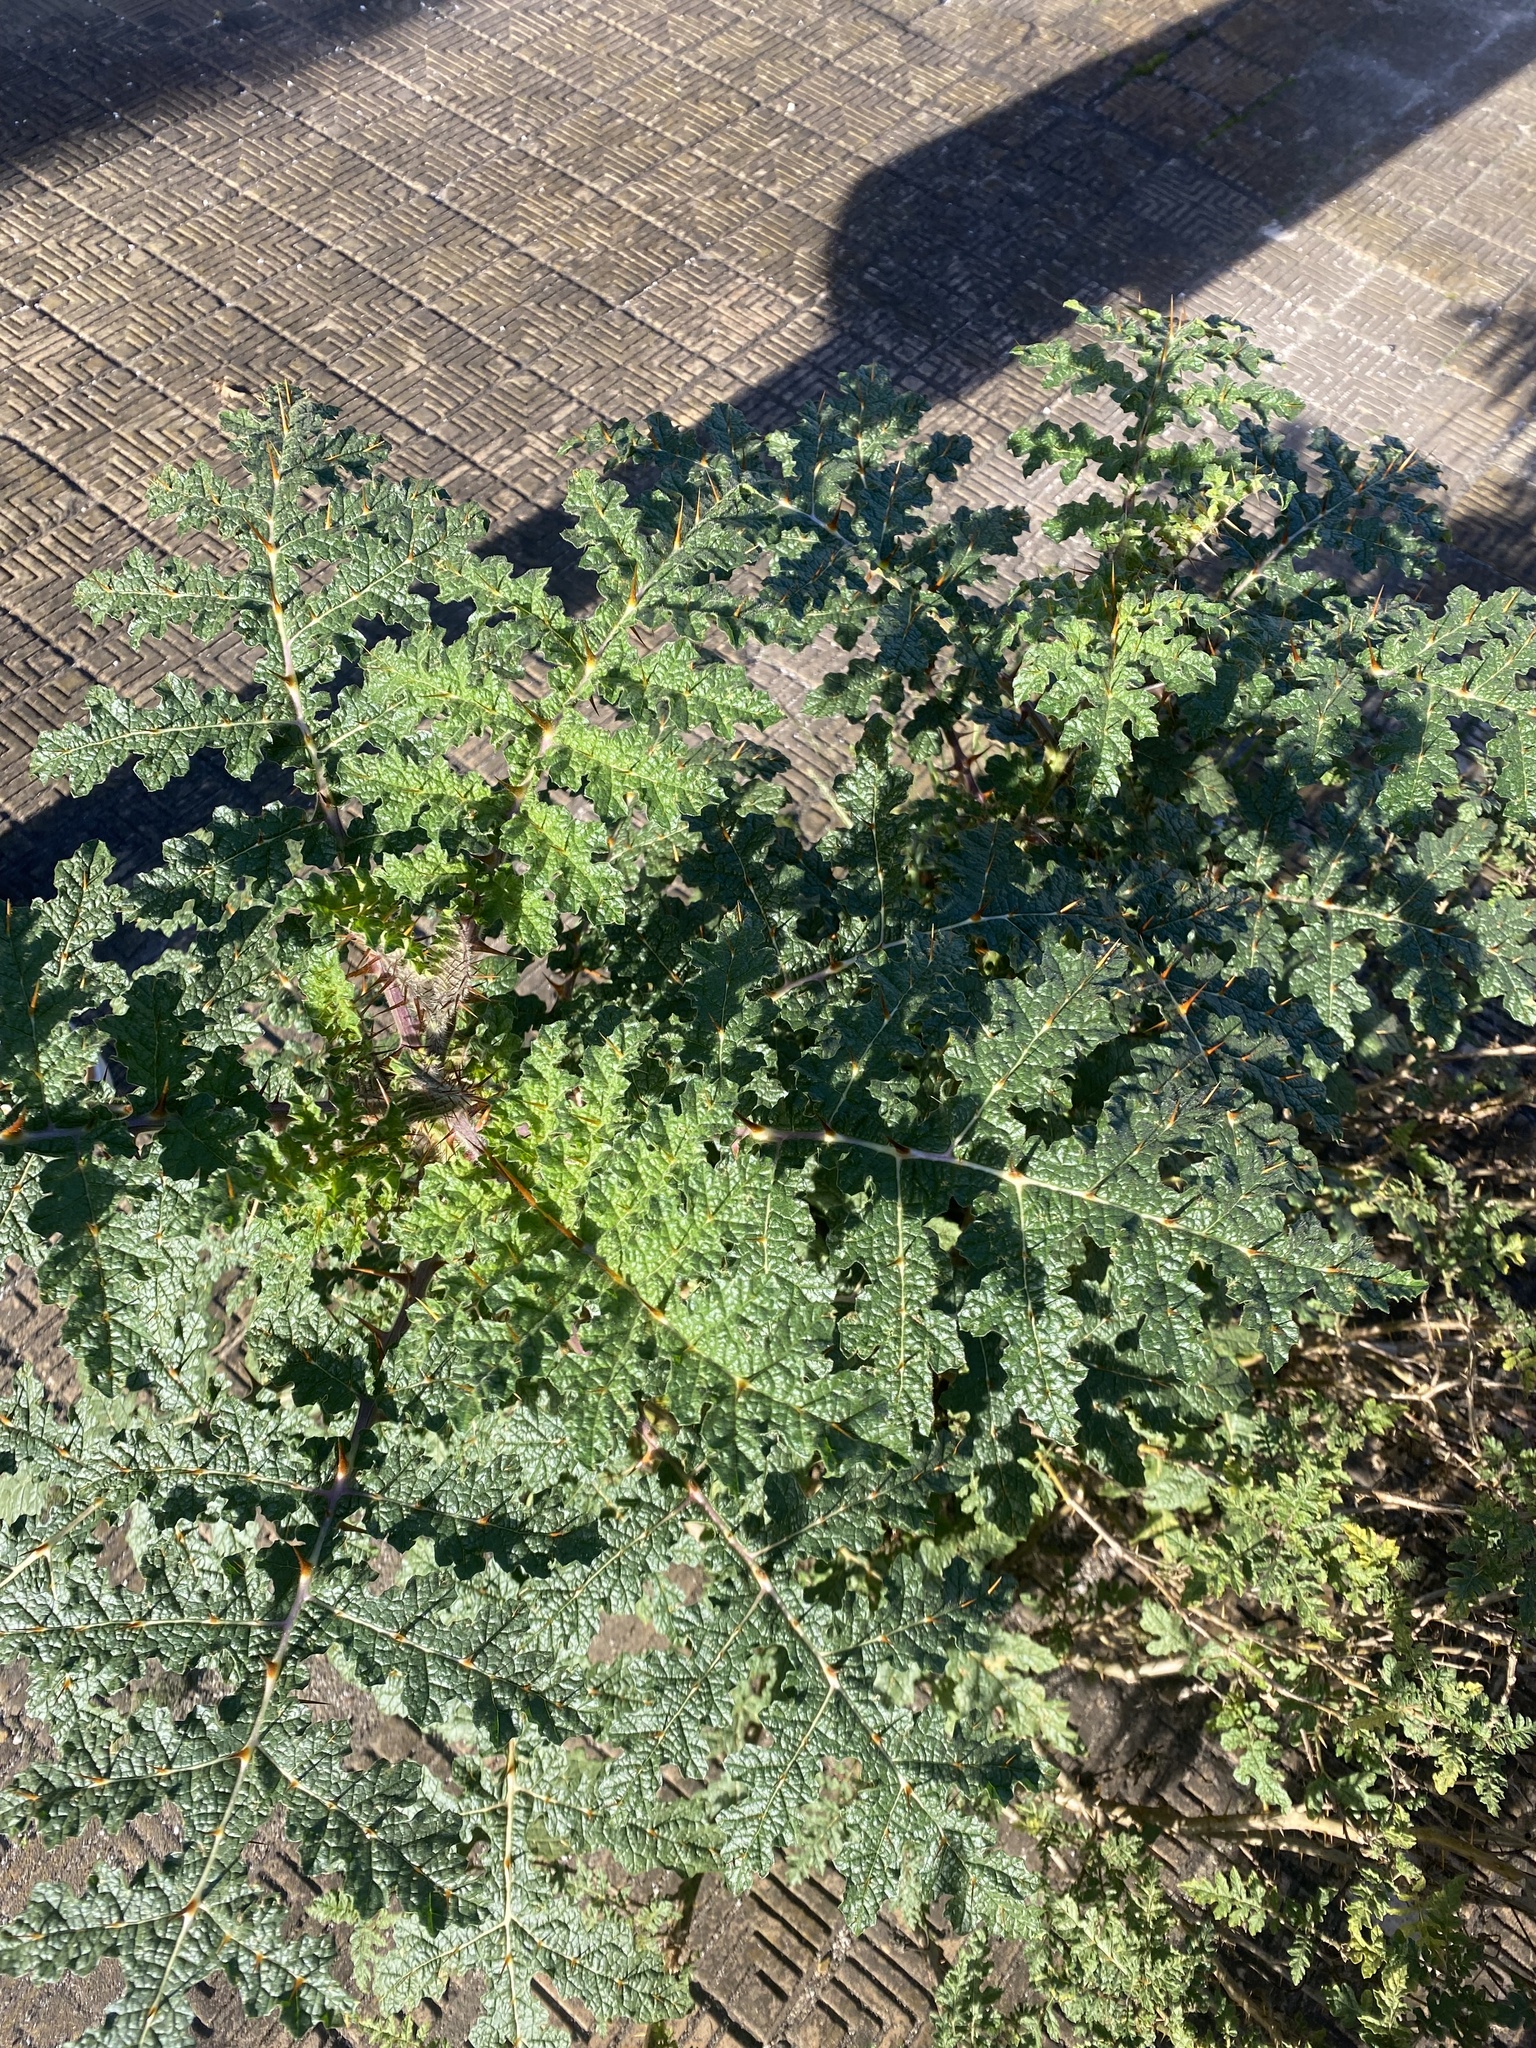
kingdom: Plantae
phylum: Tracheophyta
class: Magnoliopsida
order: Solanales
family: Solanaceae
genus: Solanum
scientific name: Solanum sisymbriifolium
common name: Red buffalo-bur
